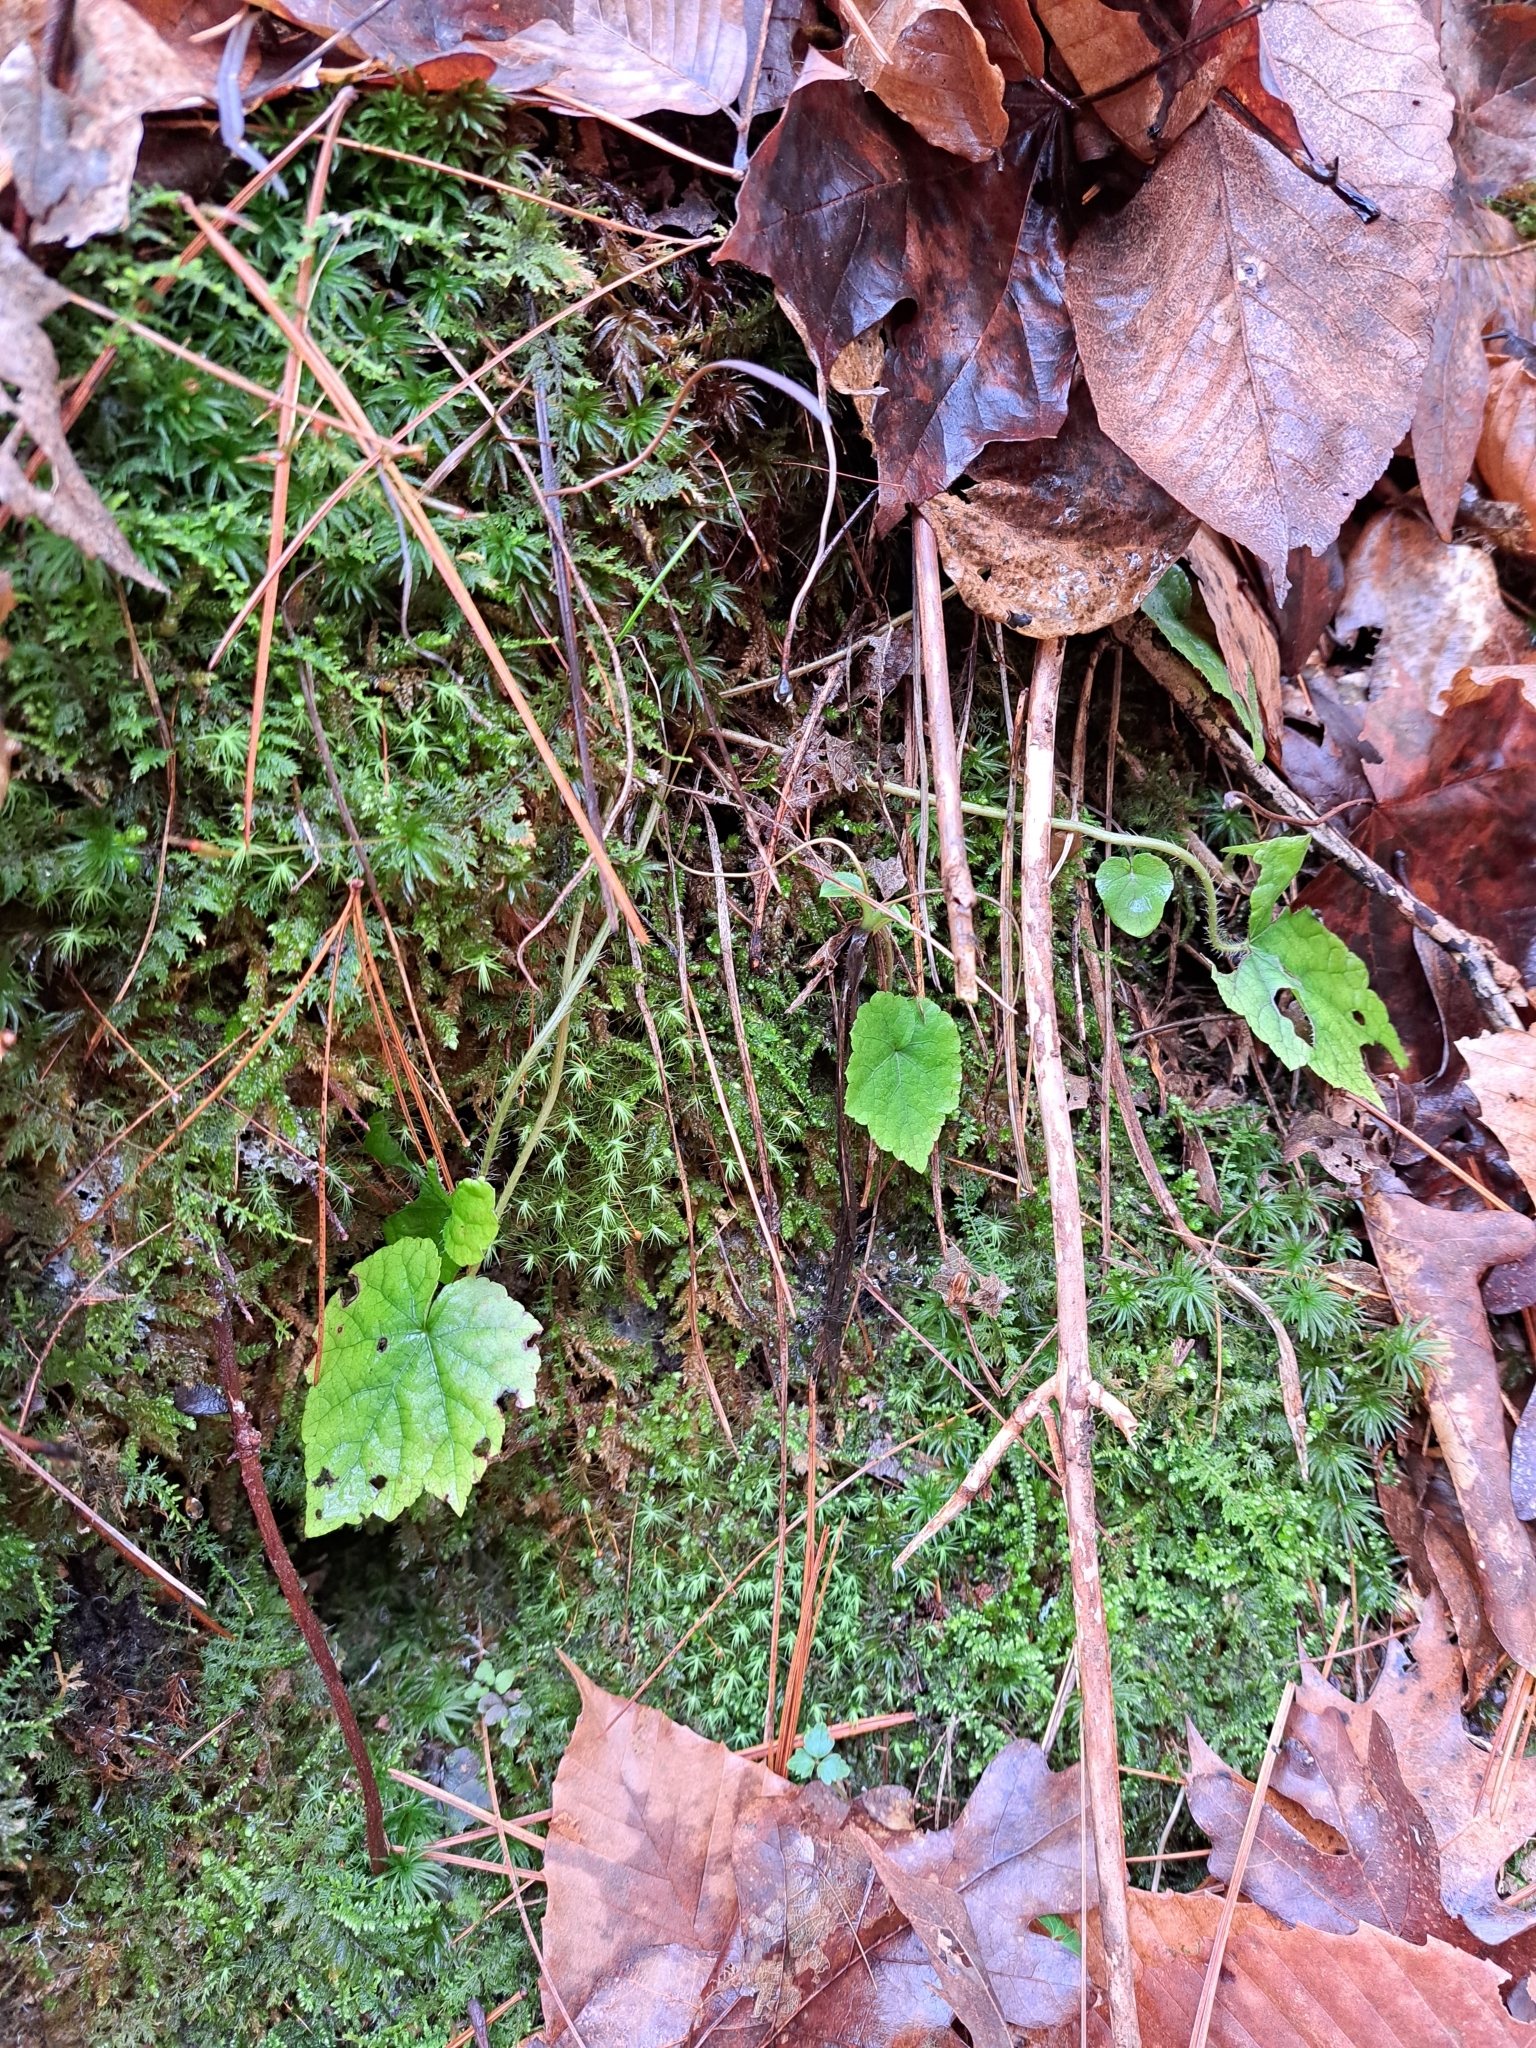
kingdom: Plantae
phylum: Tracheophyta
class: Magnoliopsida
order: Saxifragales
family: Saxifragaceae
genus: Mitella
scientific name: Mitella diphylla
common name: Coolwort
